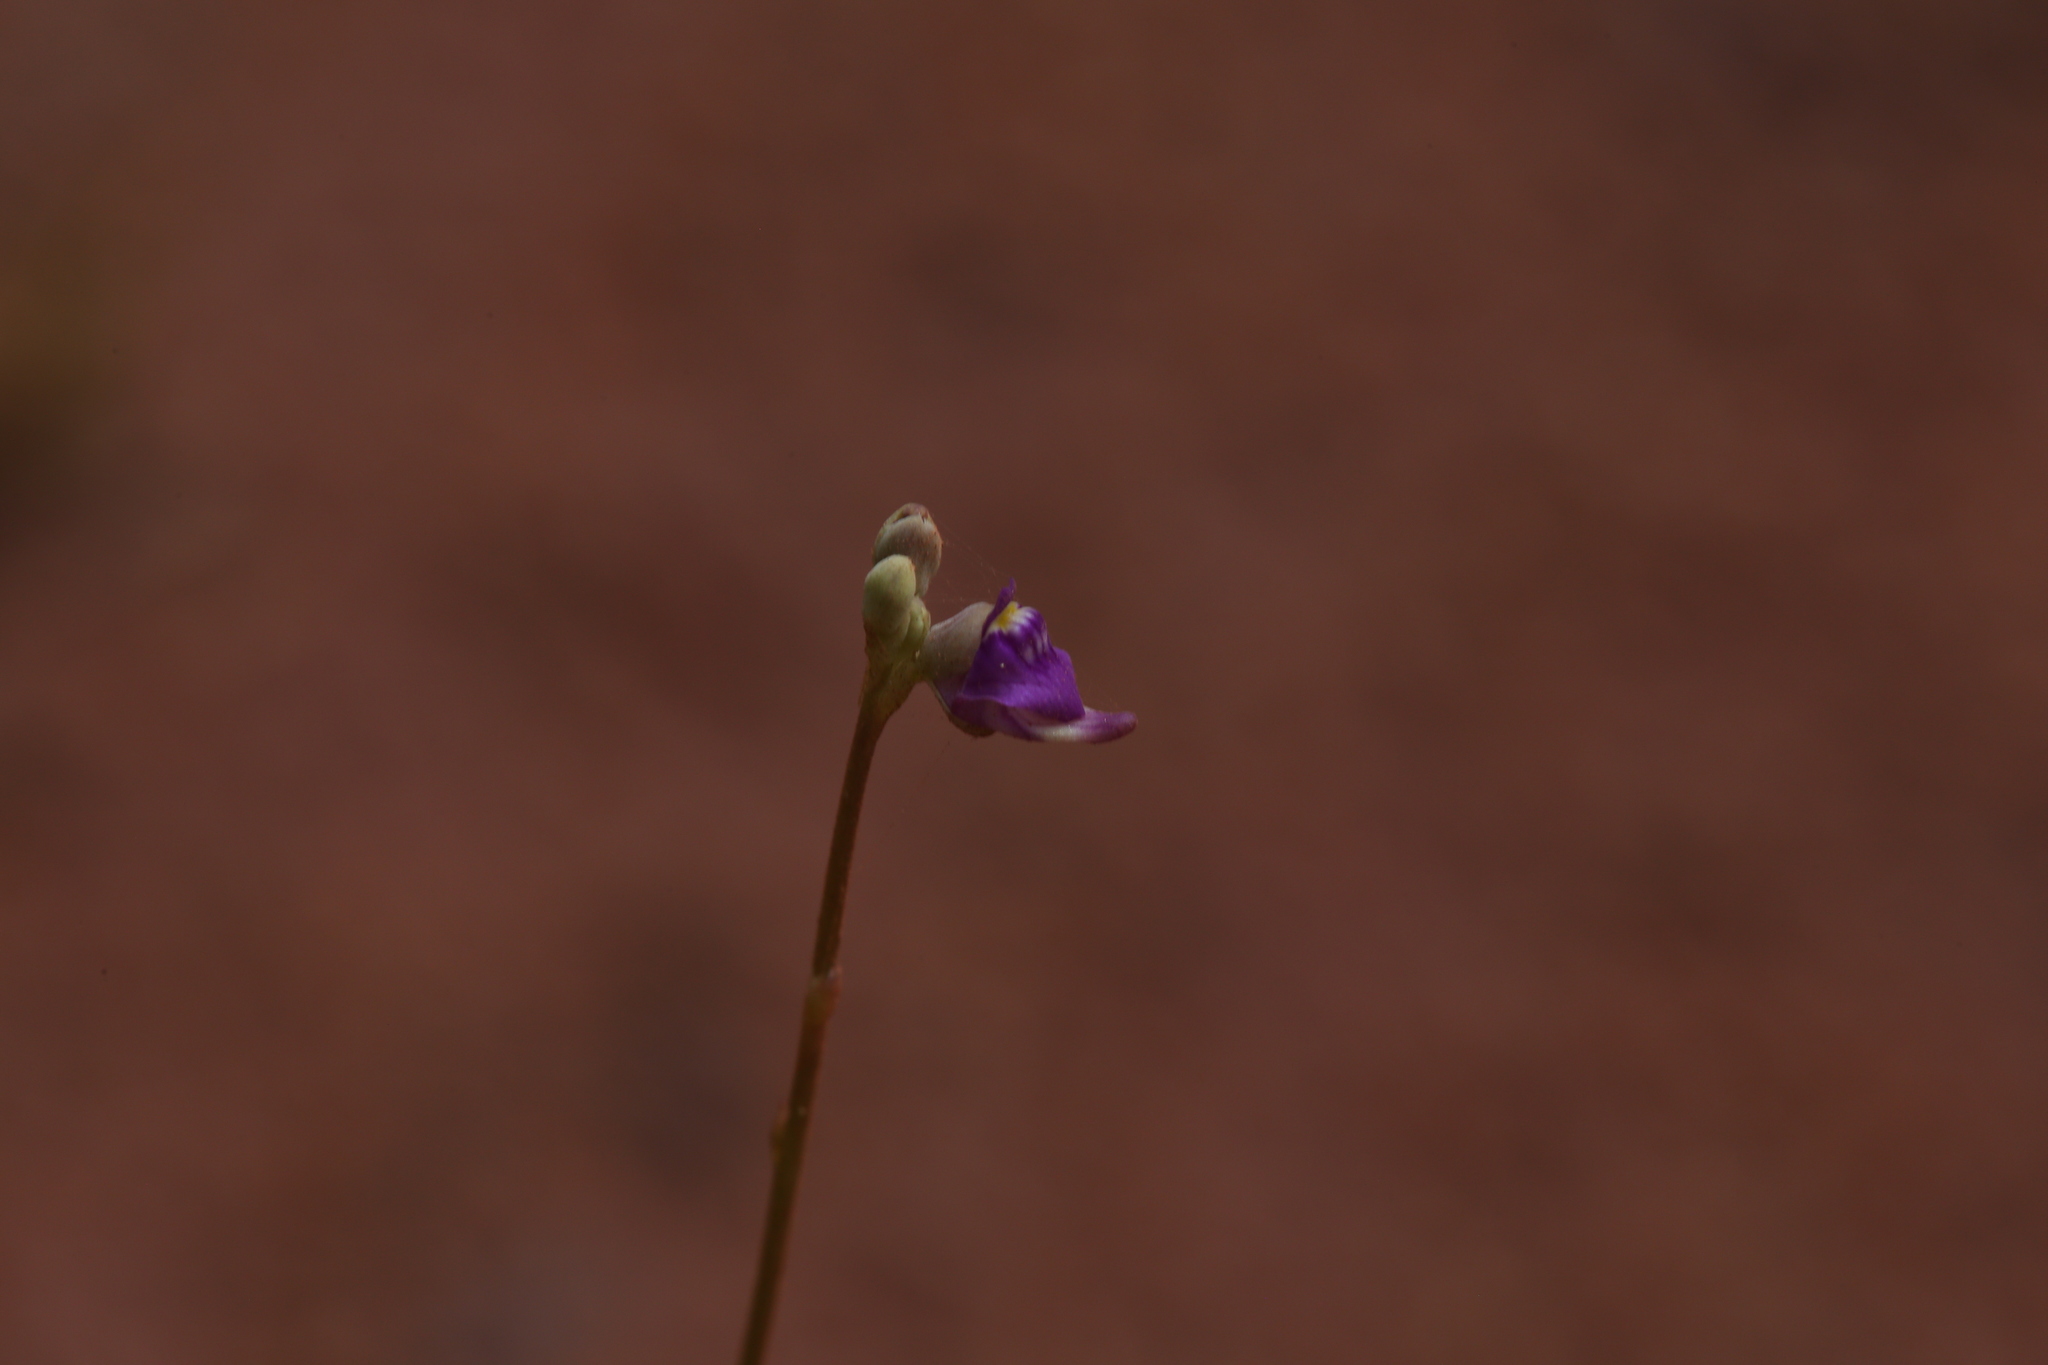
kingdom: Plantae
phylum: Tracheophyta
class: Magnoliopsida
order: Lamiales
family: Lentibulariaceae
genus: Utricularia
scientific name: Utricularia caerulea
